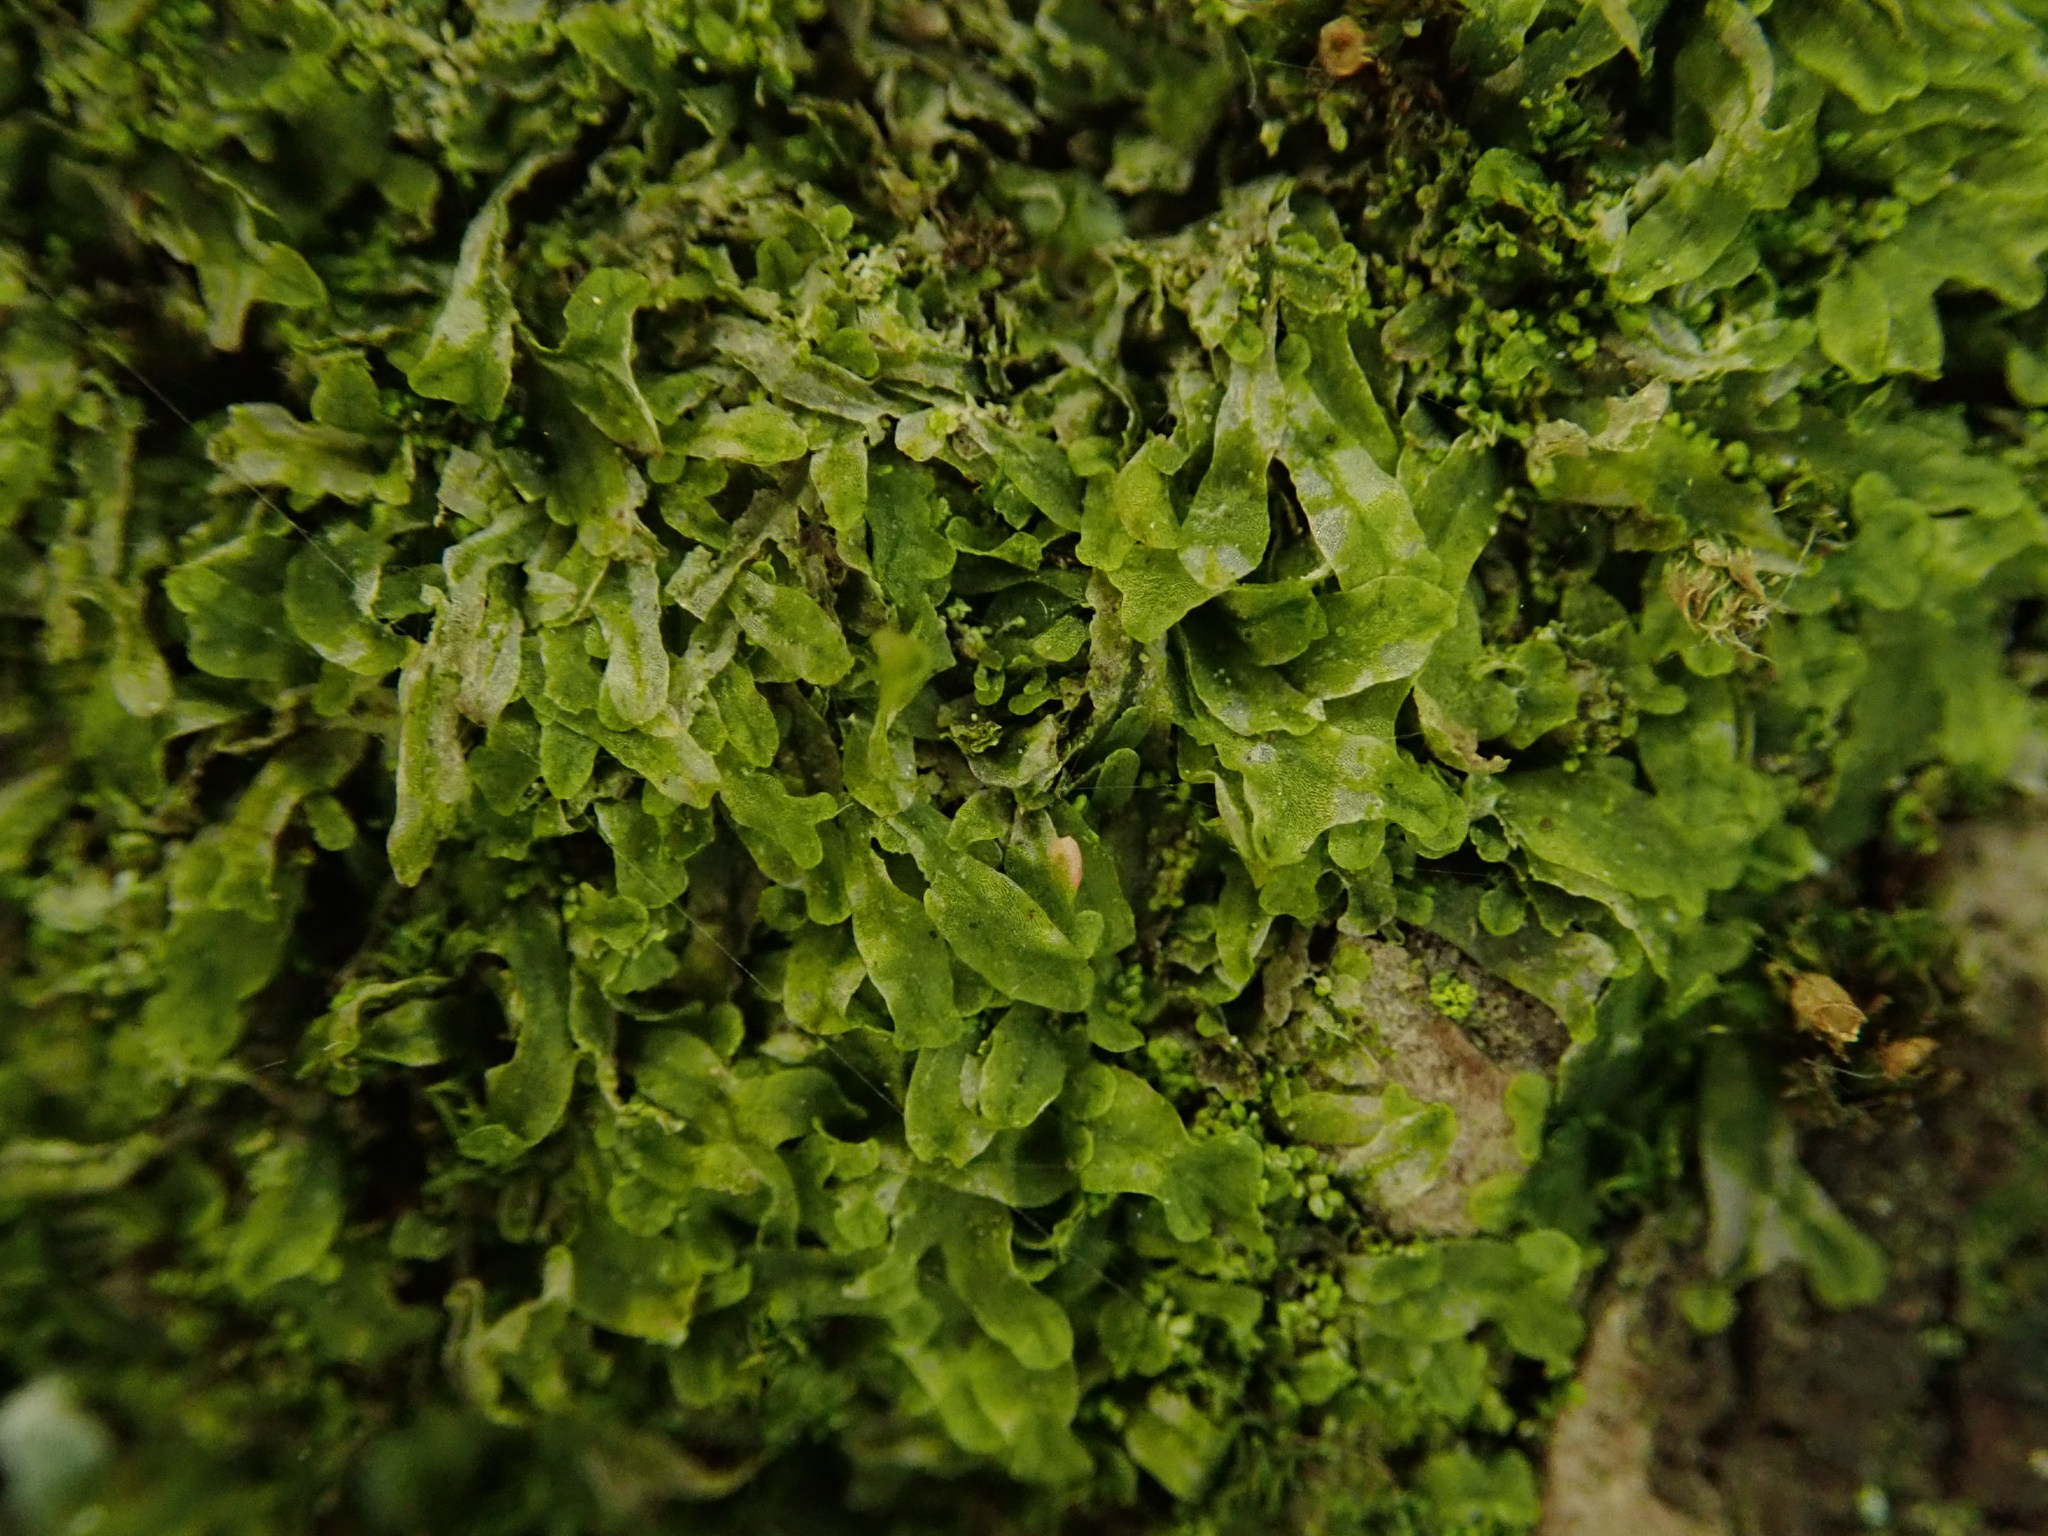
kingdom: Plantae
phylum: Marchantiophyta
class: Jungermanniopsida
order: Metzgeriales
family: Metzgeriaceae
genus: Metzgeria
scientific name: Metzgeria furcata
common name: Forked veilwort
